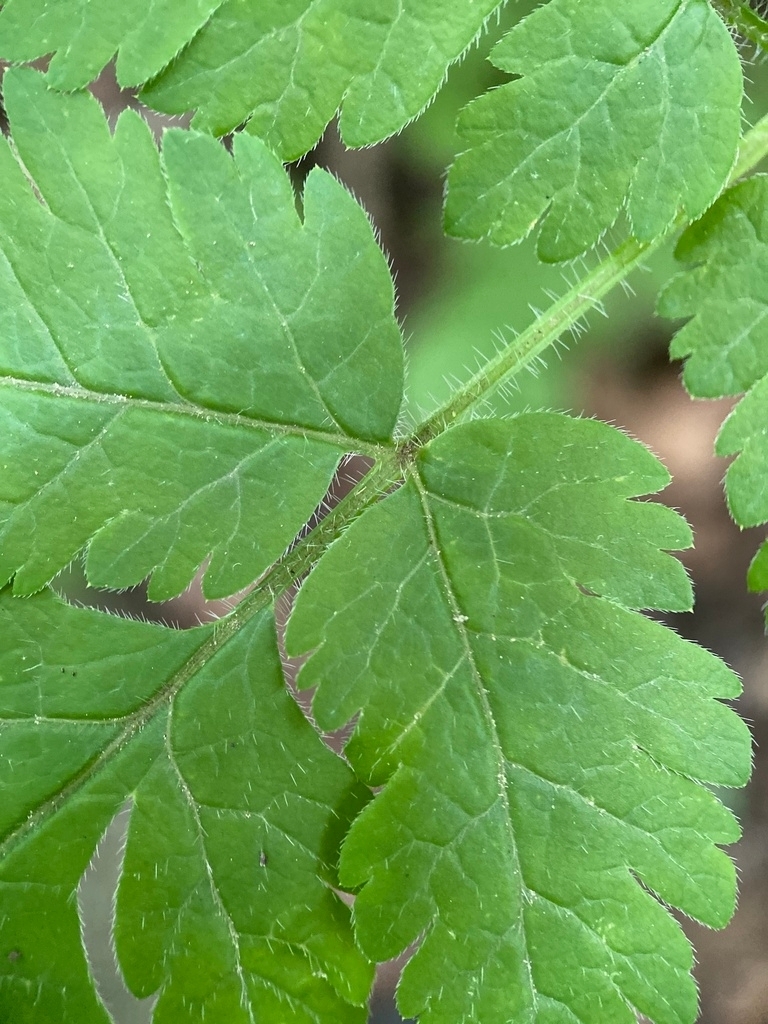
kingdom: Fungi
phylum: Ascomycota
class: Leotiomycetes
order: Helotiales
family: Erysiphaceae
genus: Erysiphe
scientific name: Erysiphe heraclei
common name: Umbellifer mildew
